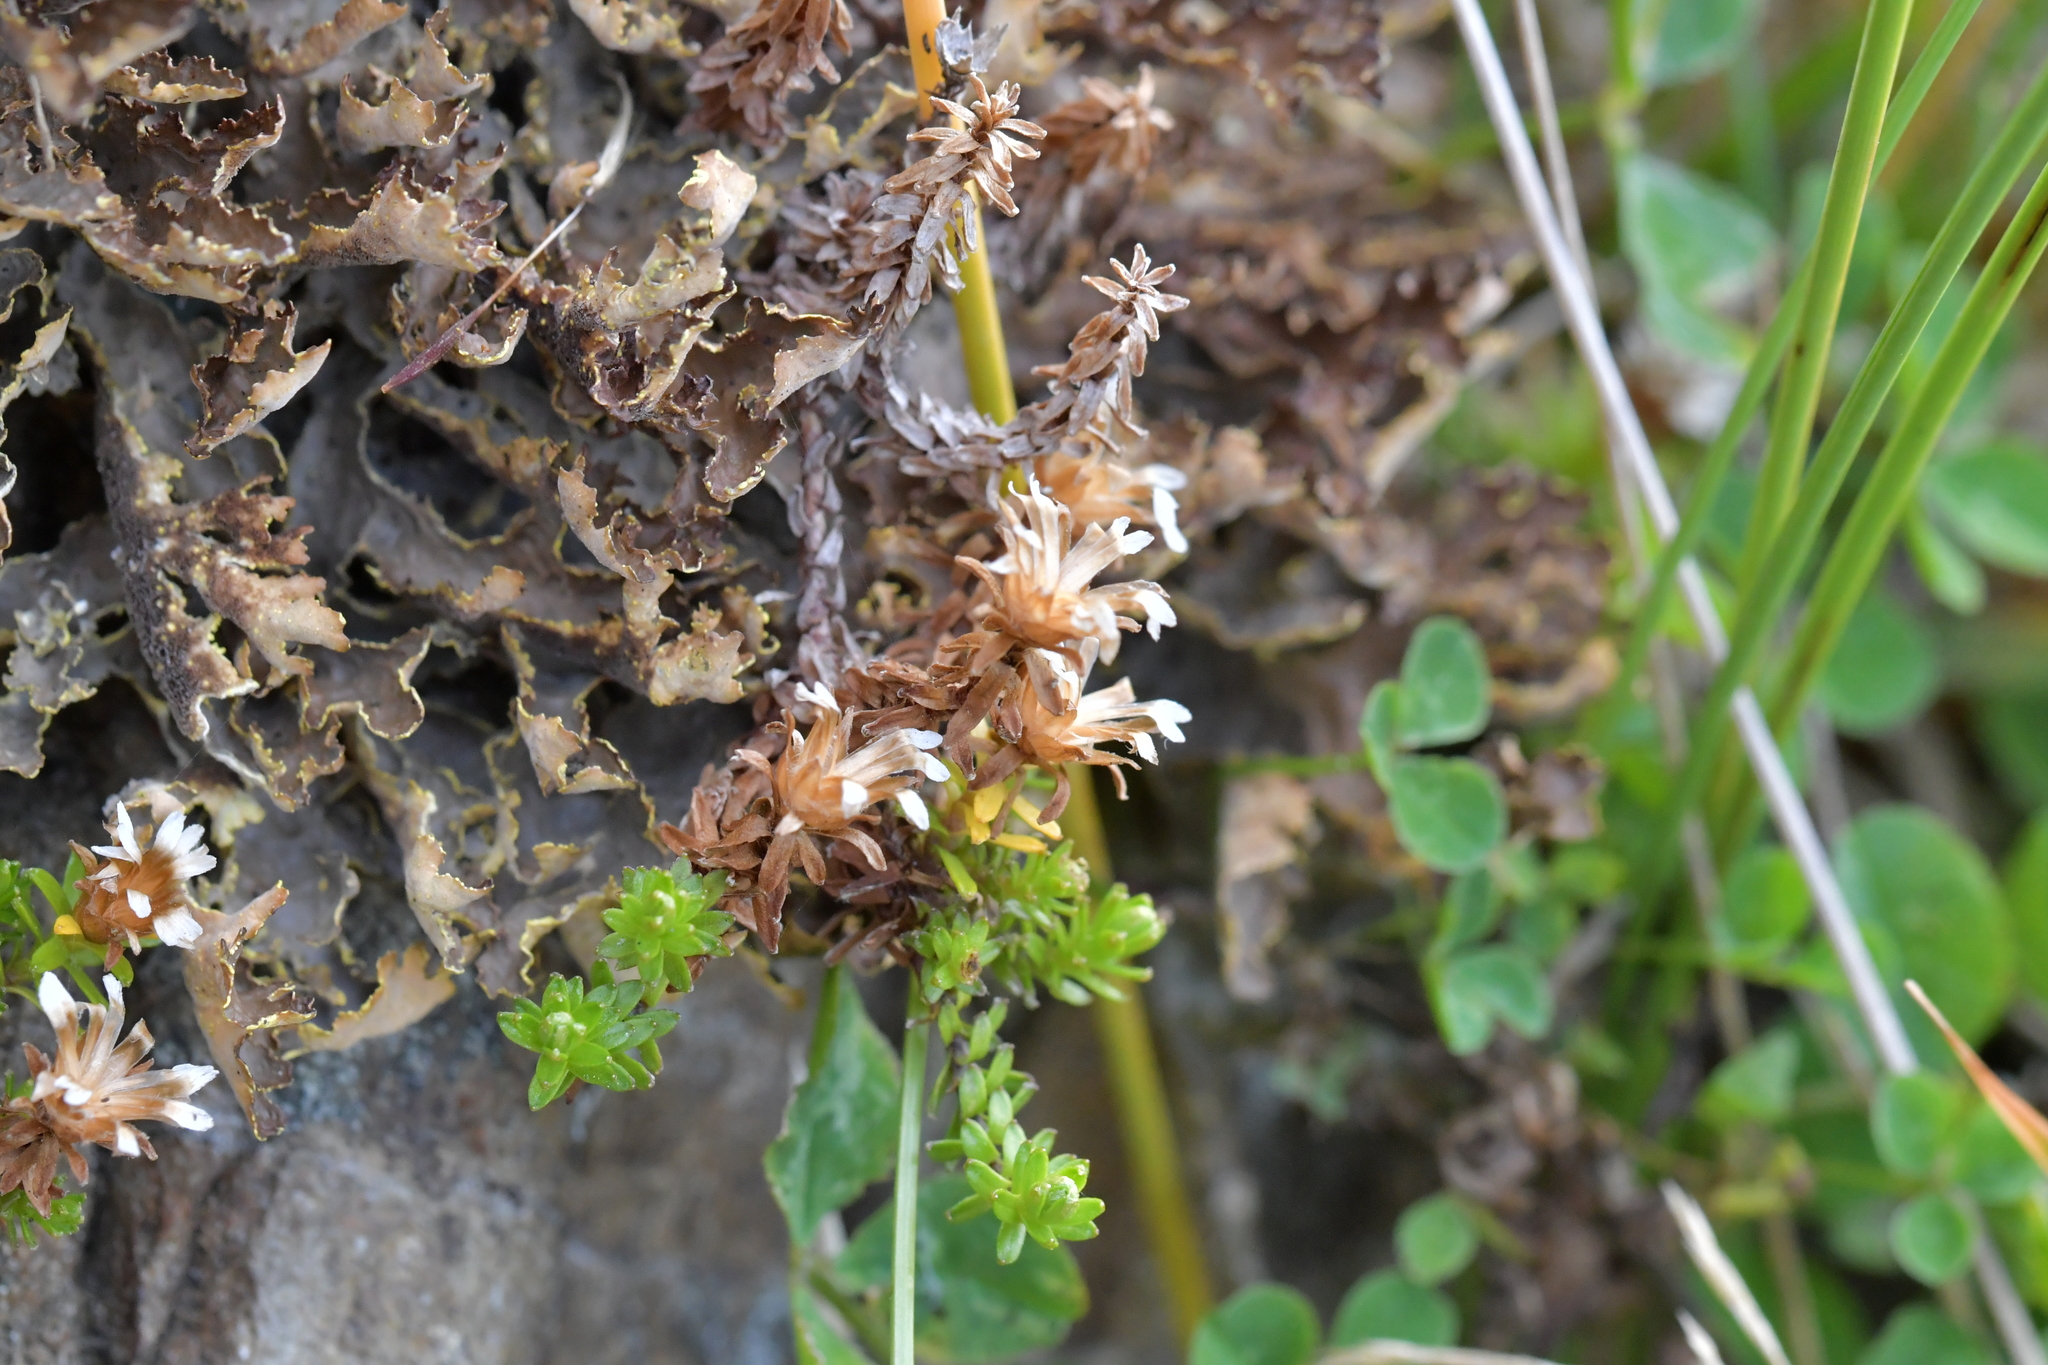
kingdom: Plantae
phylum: Tracheophyta
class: Magnoliopsida
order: Asterales
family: Asteraceae
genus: Raoulia
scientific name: Raoulia glabra
